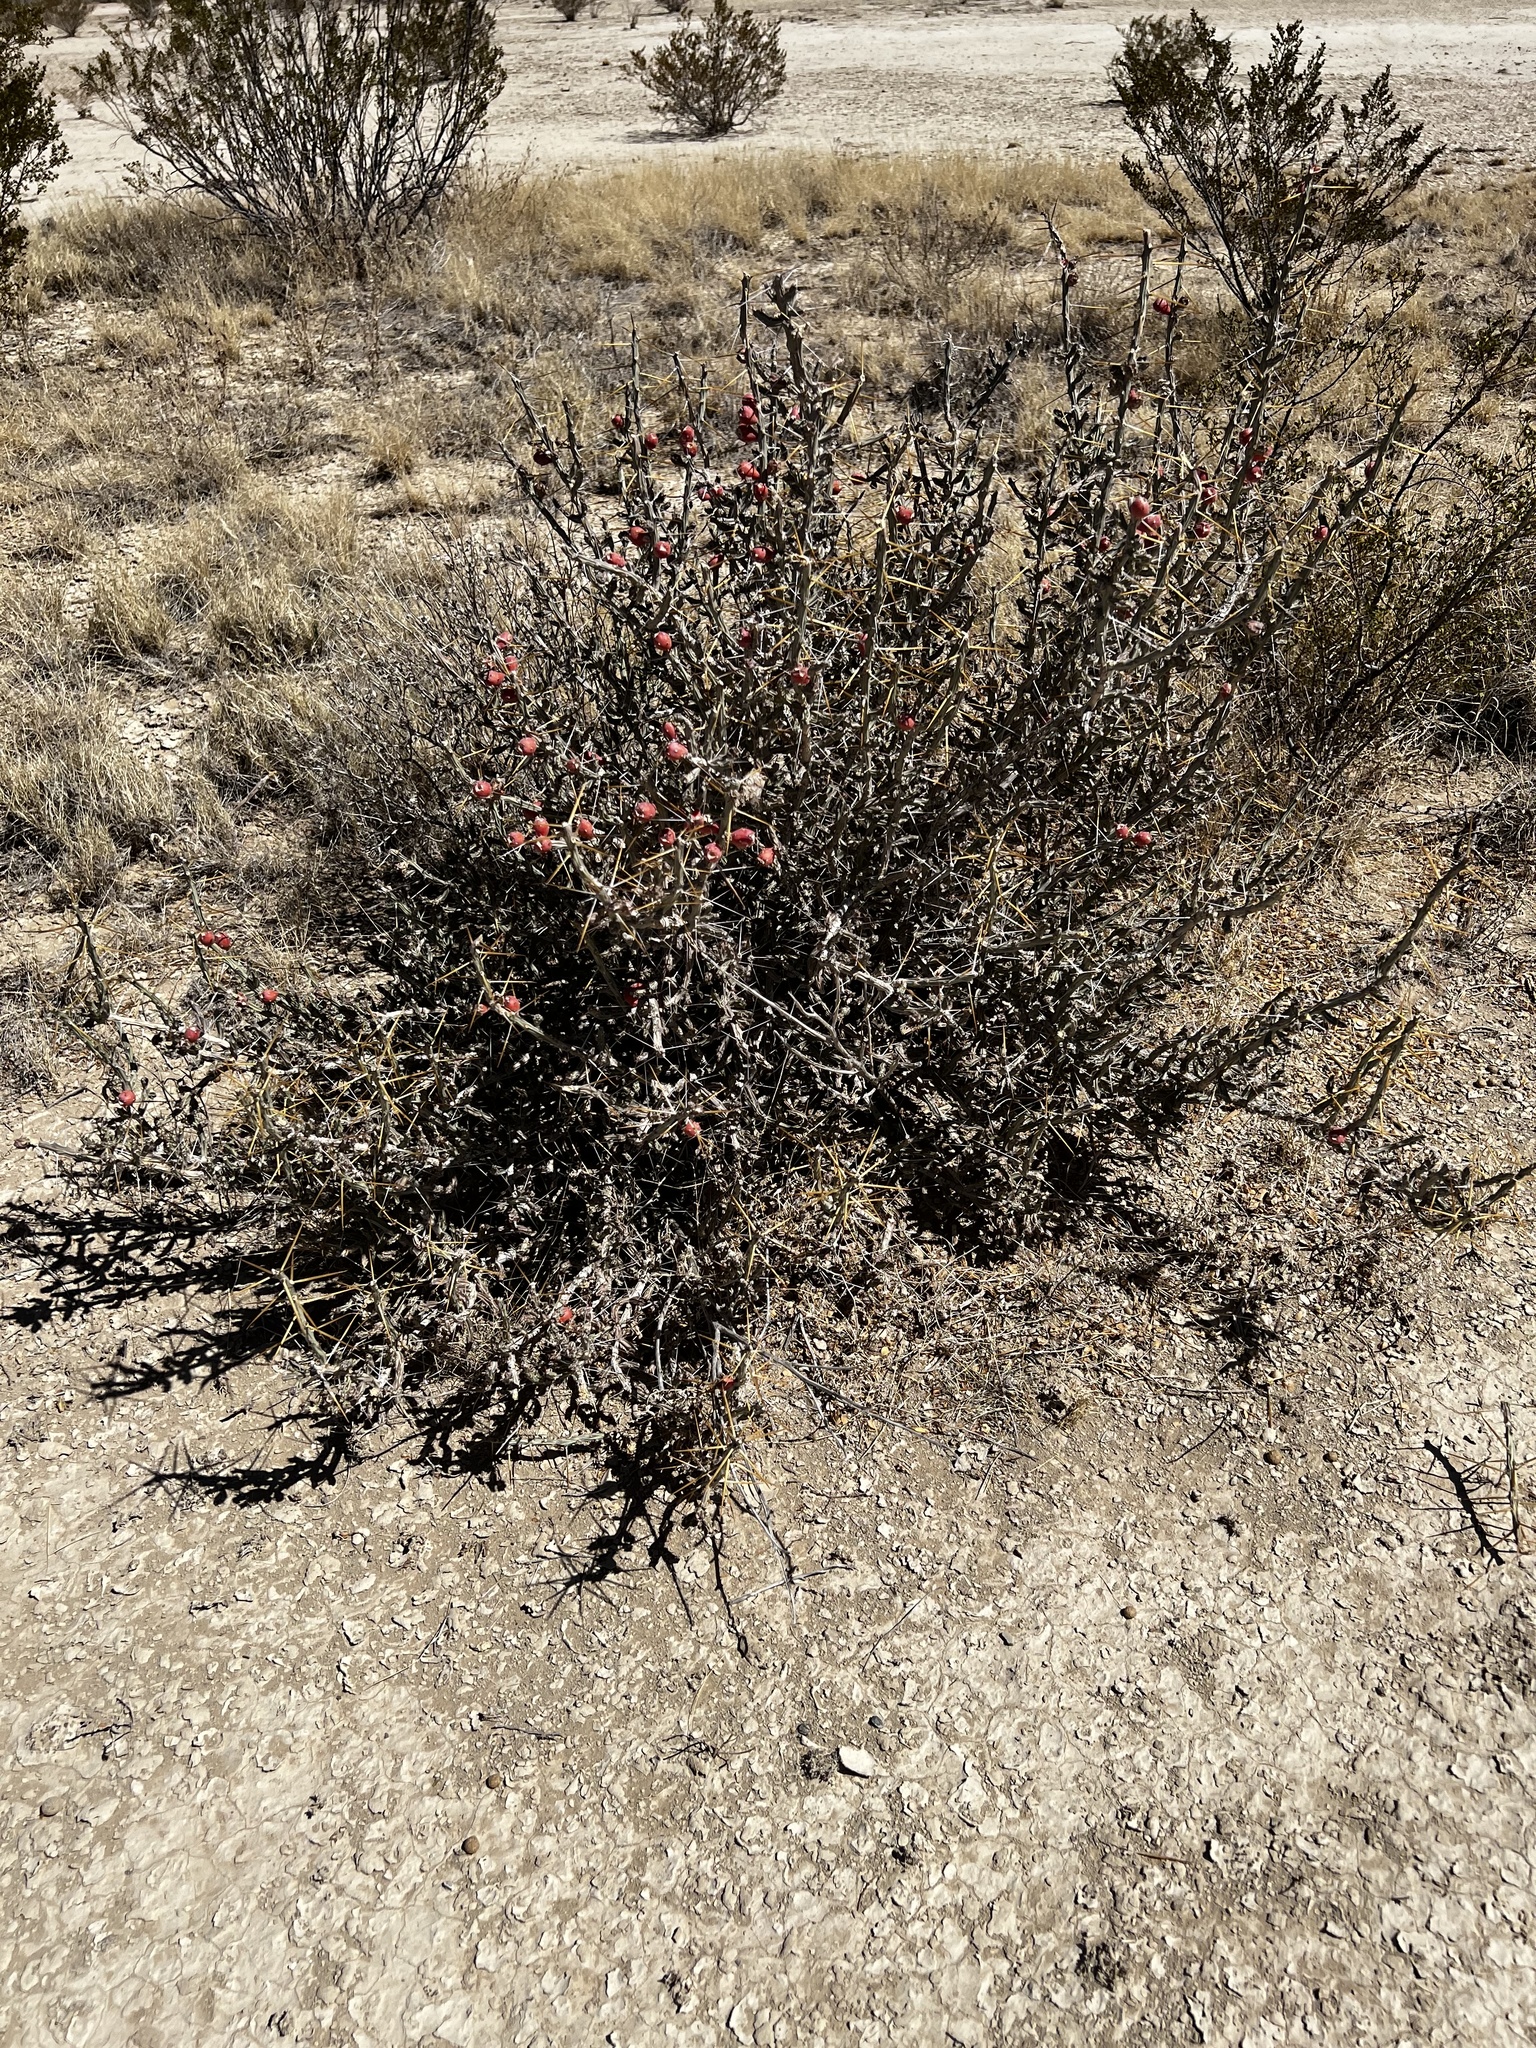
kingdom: Plantae
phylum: Tracheophyta
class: Magnoliopsida
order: Caryophyllales
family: Cactaceae
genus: Cylindropuntia
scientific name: Cylindropuntia leptocaulis
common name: Christmas cactus
